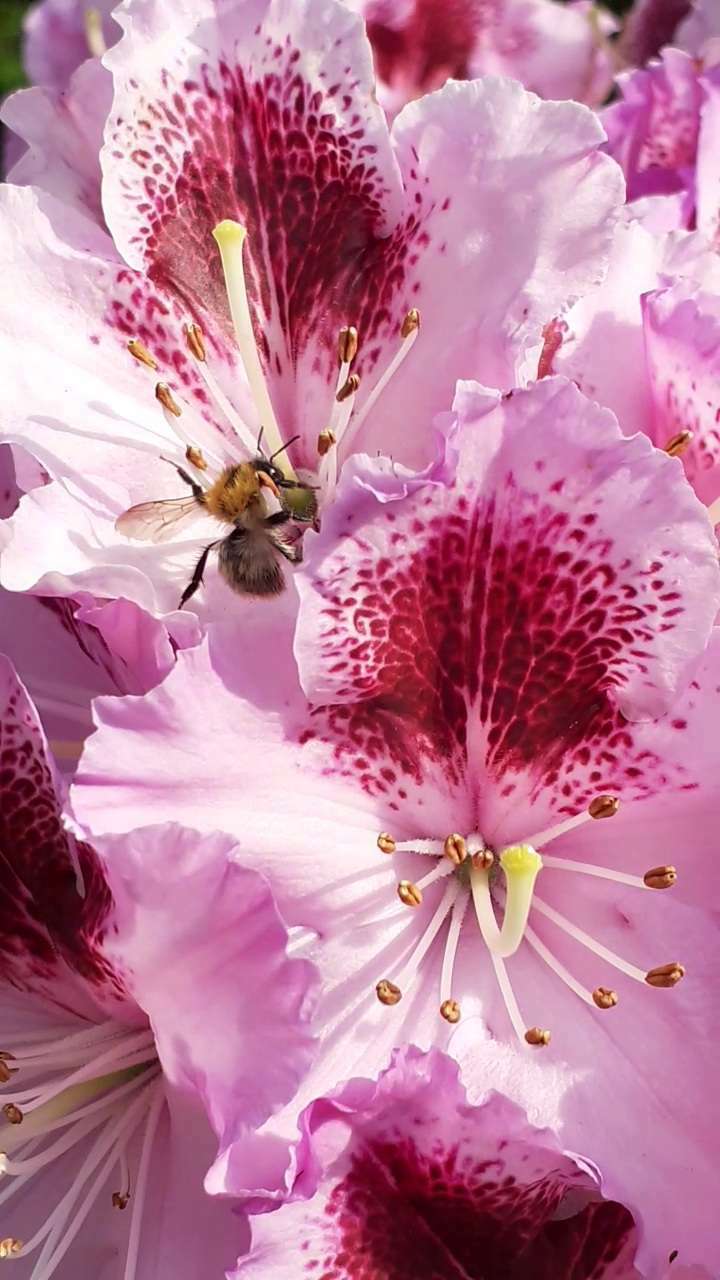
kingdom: Animalia
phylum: Arthropoda
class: Insecta
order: Hymenoptera
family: Apidae
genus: Bombus
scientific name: Bombus pascuorum
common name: Common carder bee
